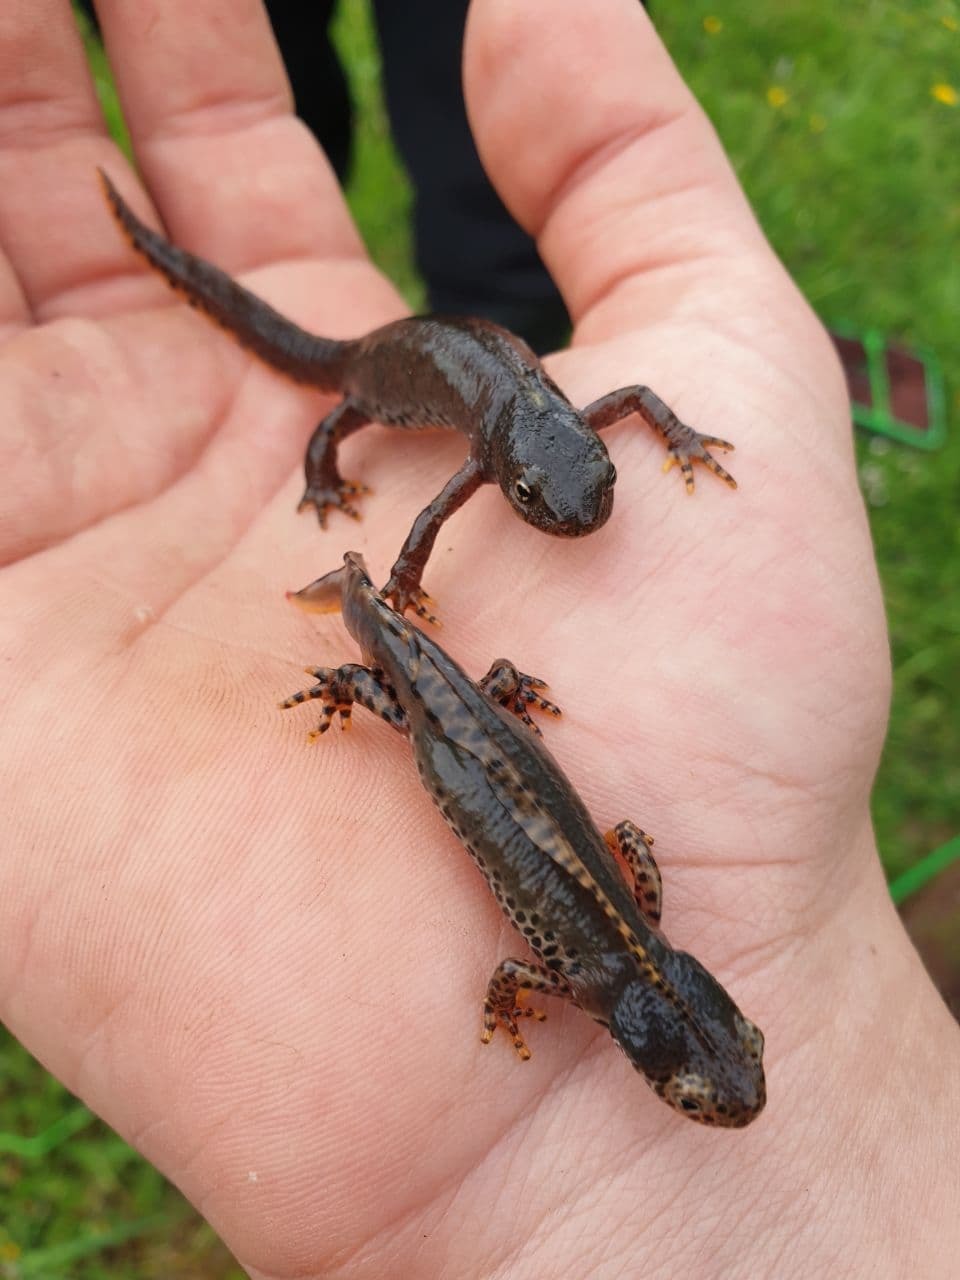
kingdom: Animalia
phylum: Chordata
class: Amphibia
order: Caudata
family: Salamandridae
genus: Ichthyosaura
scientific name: Ichthyosaura alpestris
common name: Alpine newt
